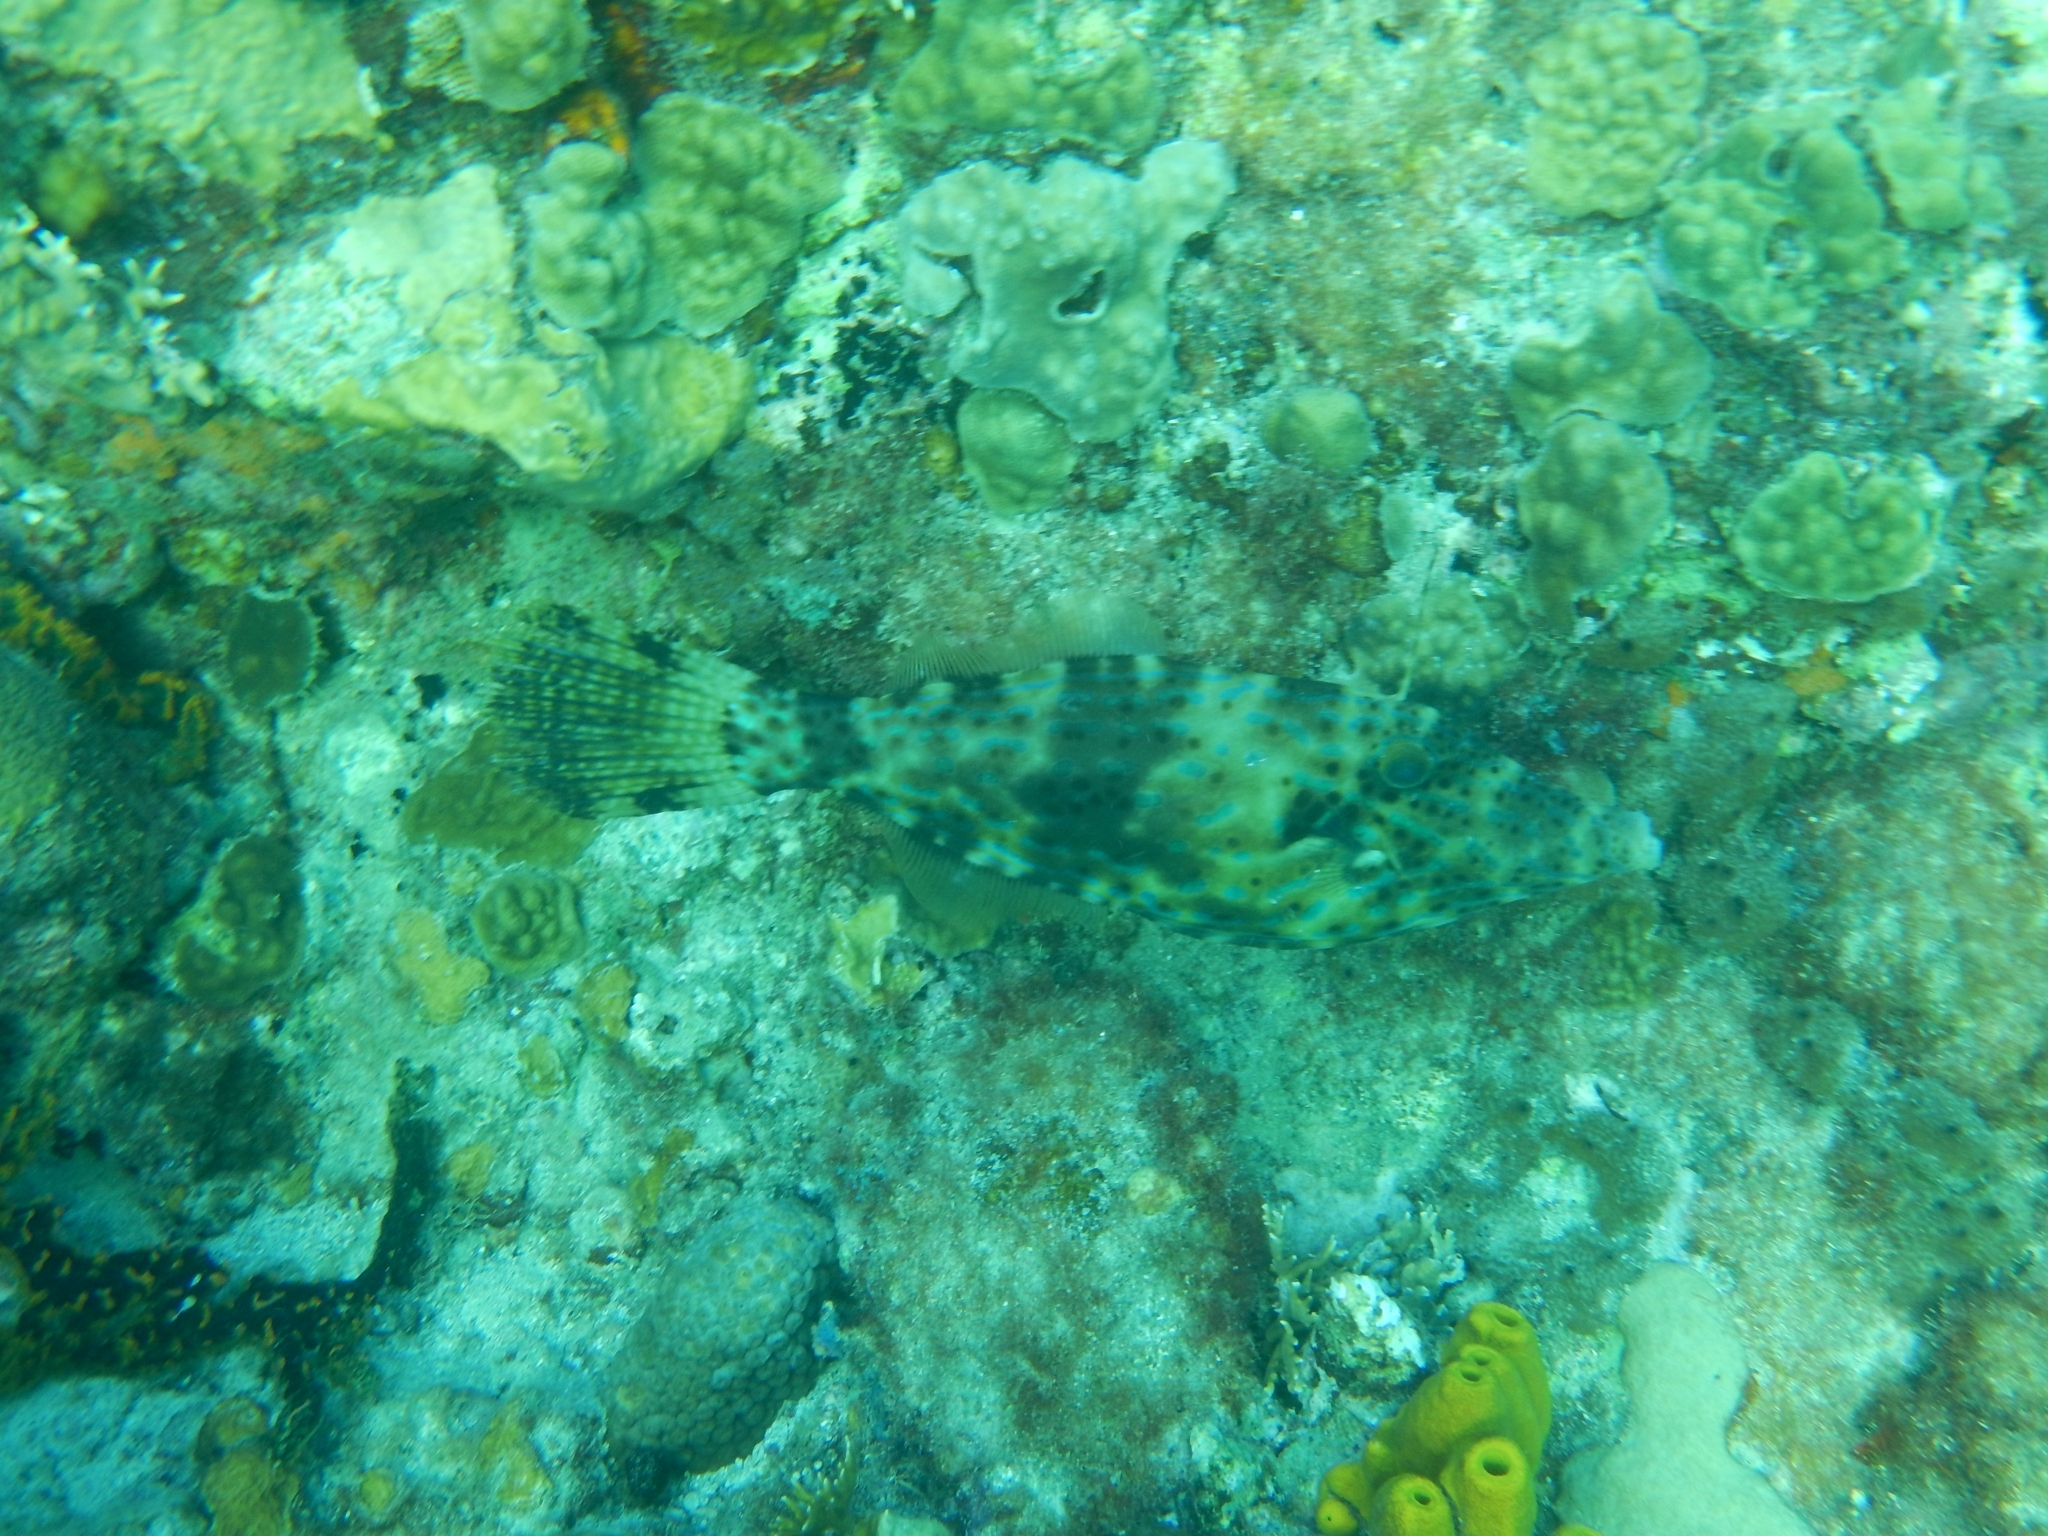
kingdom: Animalia
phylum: Chordata
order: Tetraodontiformes
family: Monacanthidae
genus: Aluterus
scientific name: Aluterus scriptus
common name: Scribbled leatherjacket filefish
